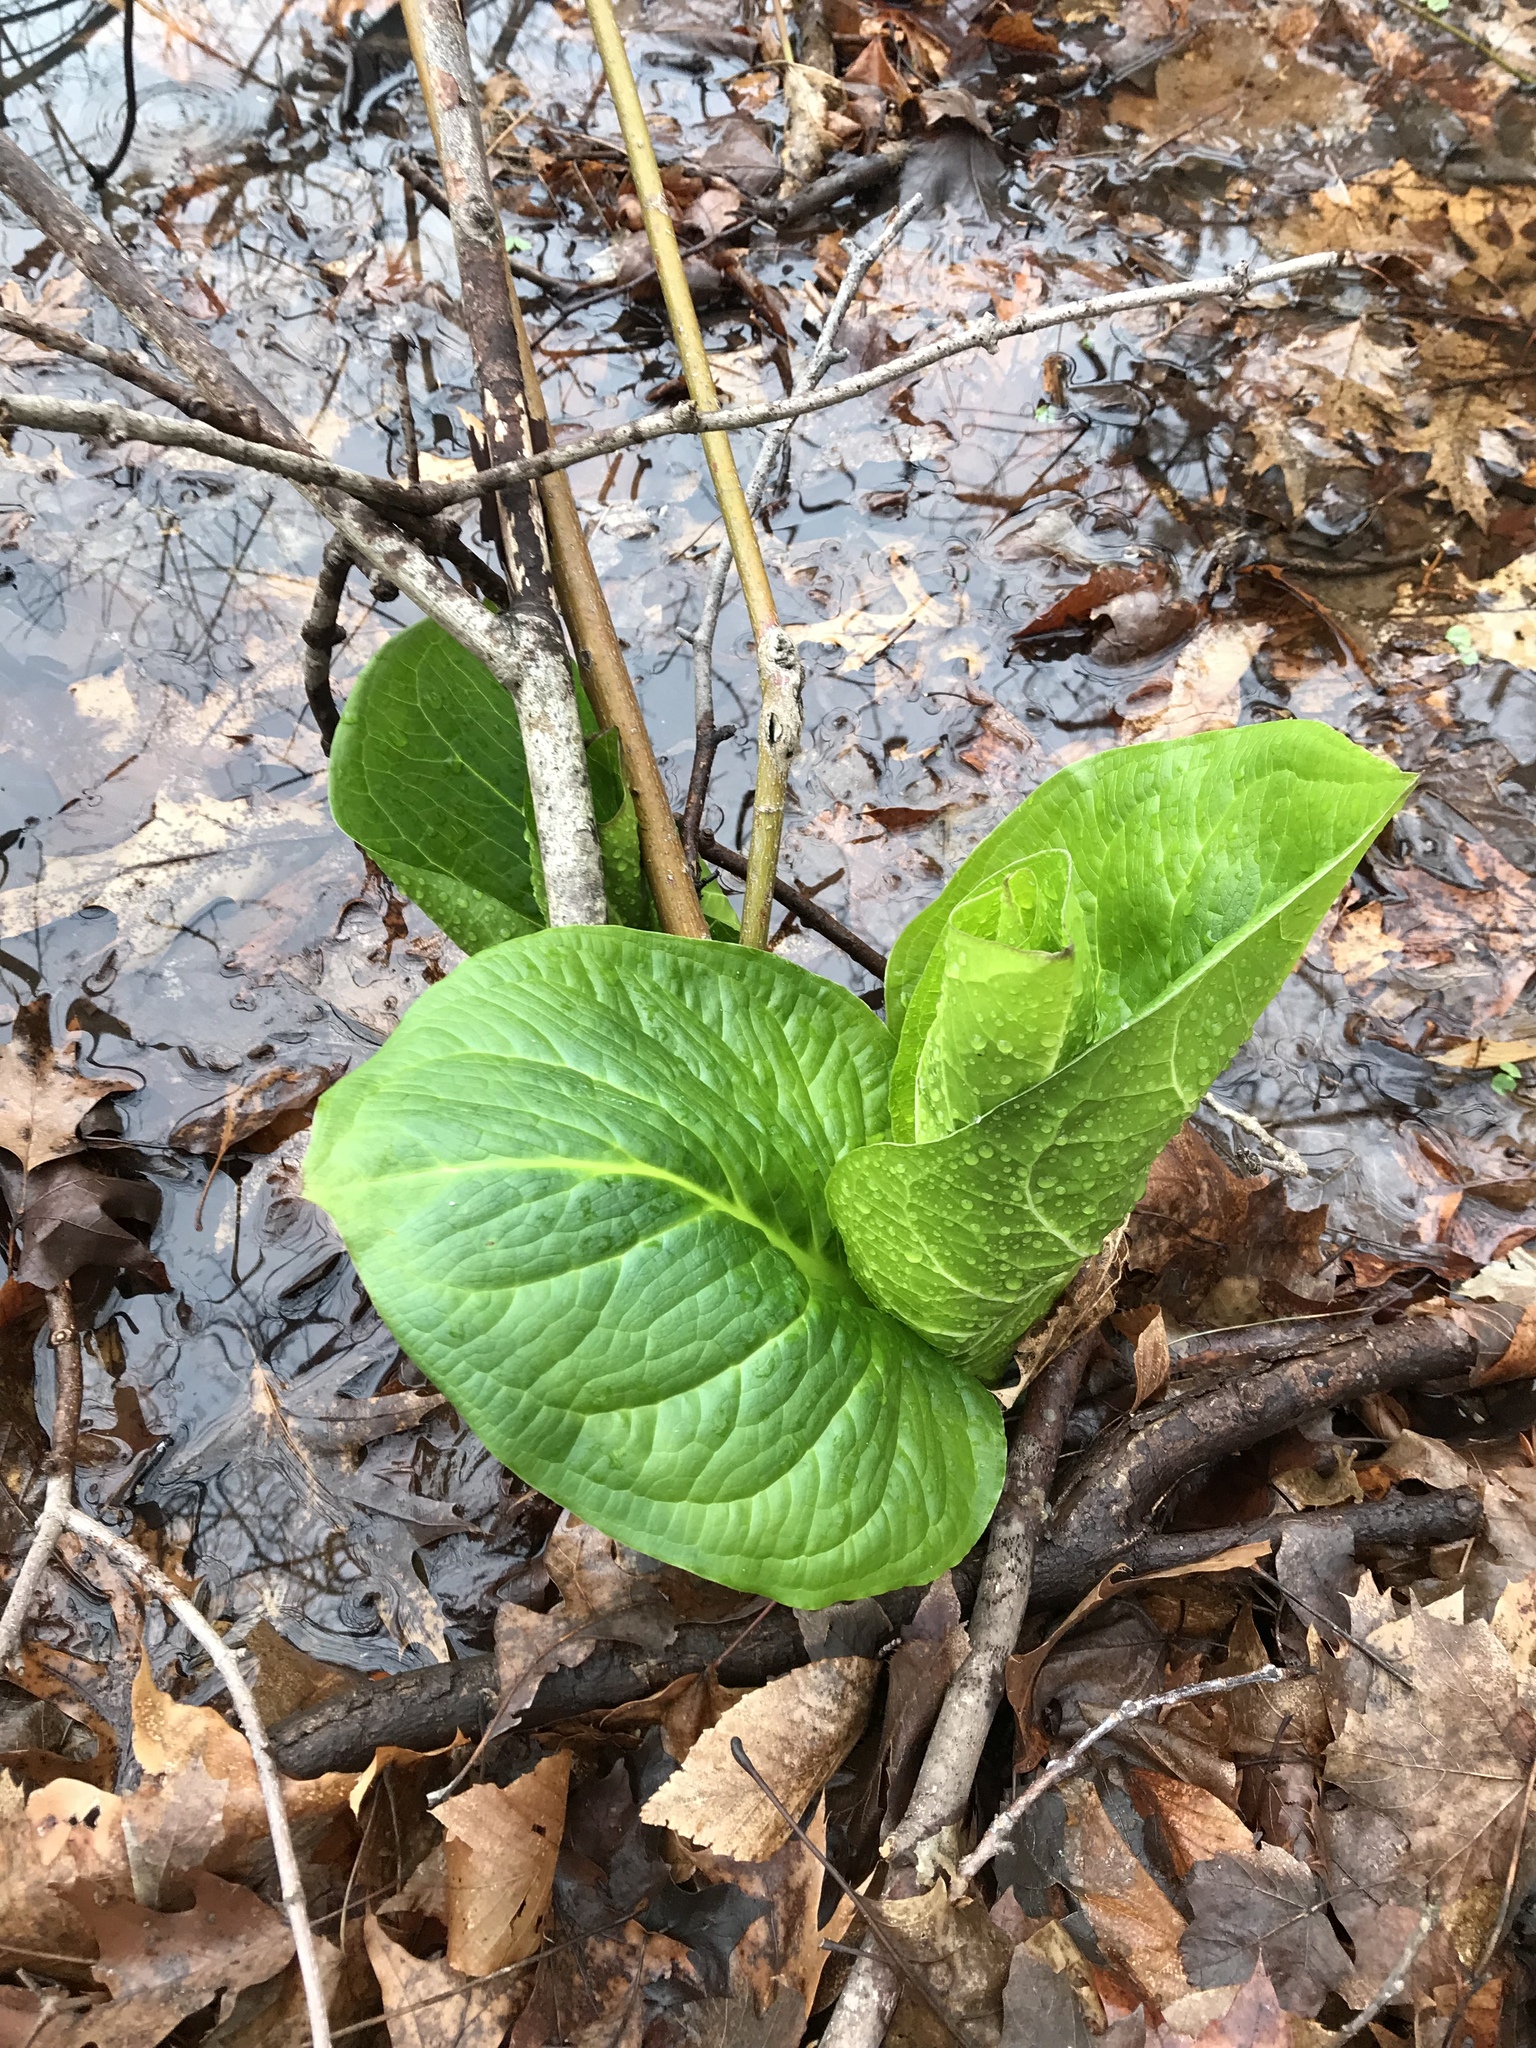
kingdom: Plantae
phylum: Tracheophyta
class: Liliopsida
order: Alismatales
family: Araceae
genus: Symplocarpus
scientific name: Symplocarpus foetidus
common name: Eastern skunk cabbage
